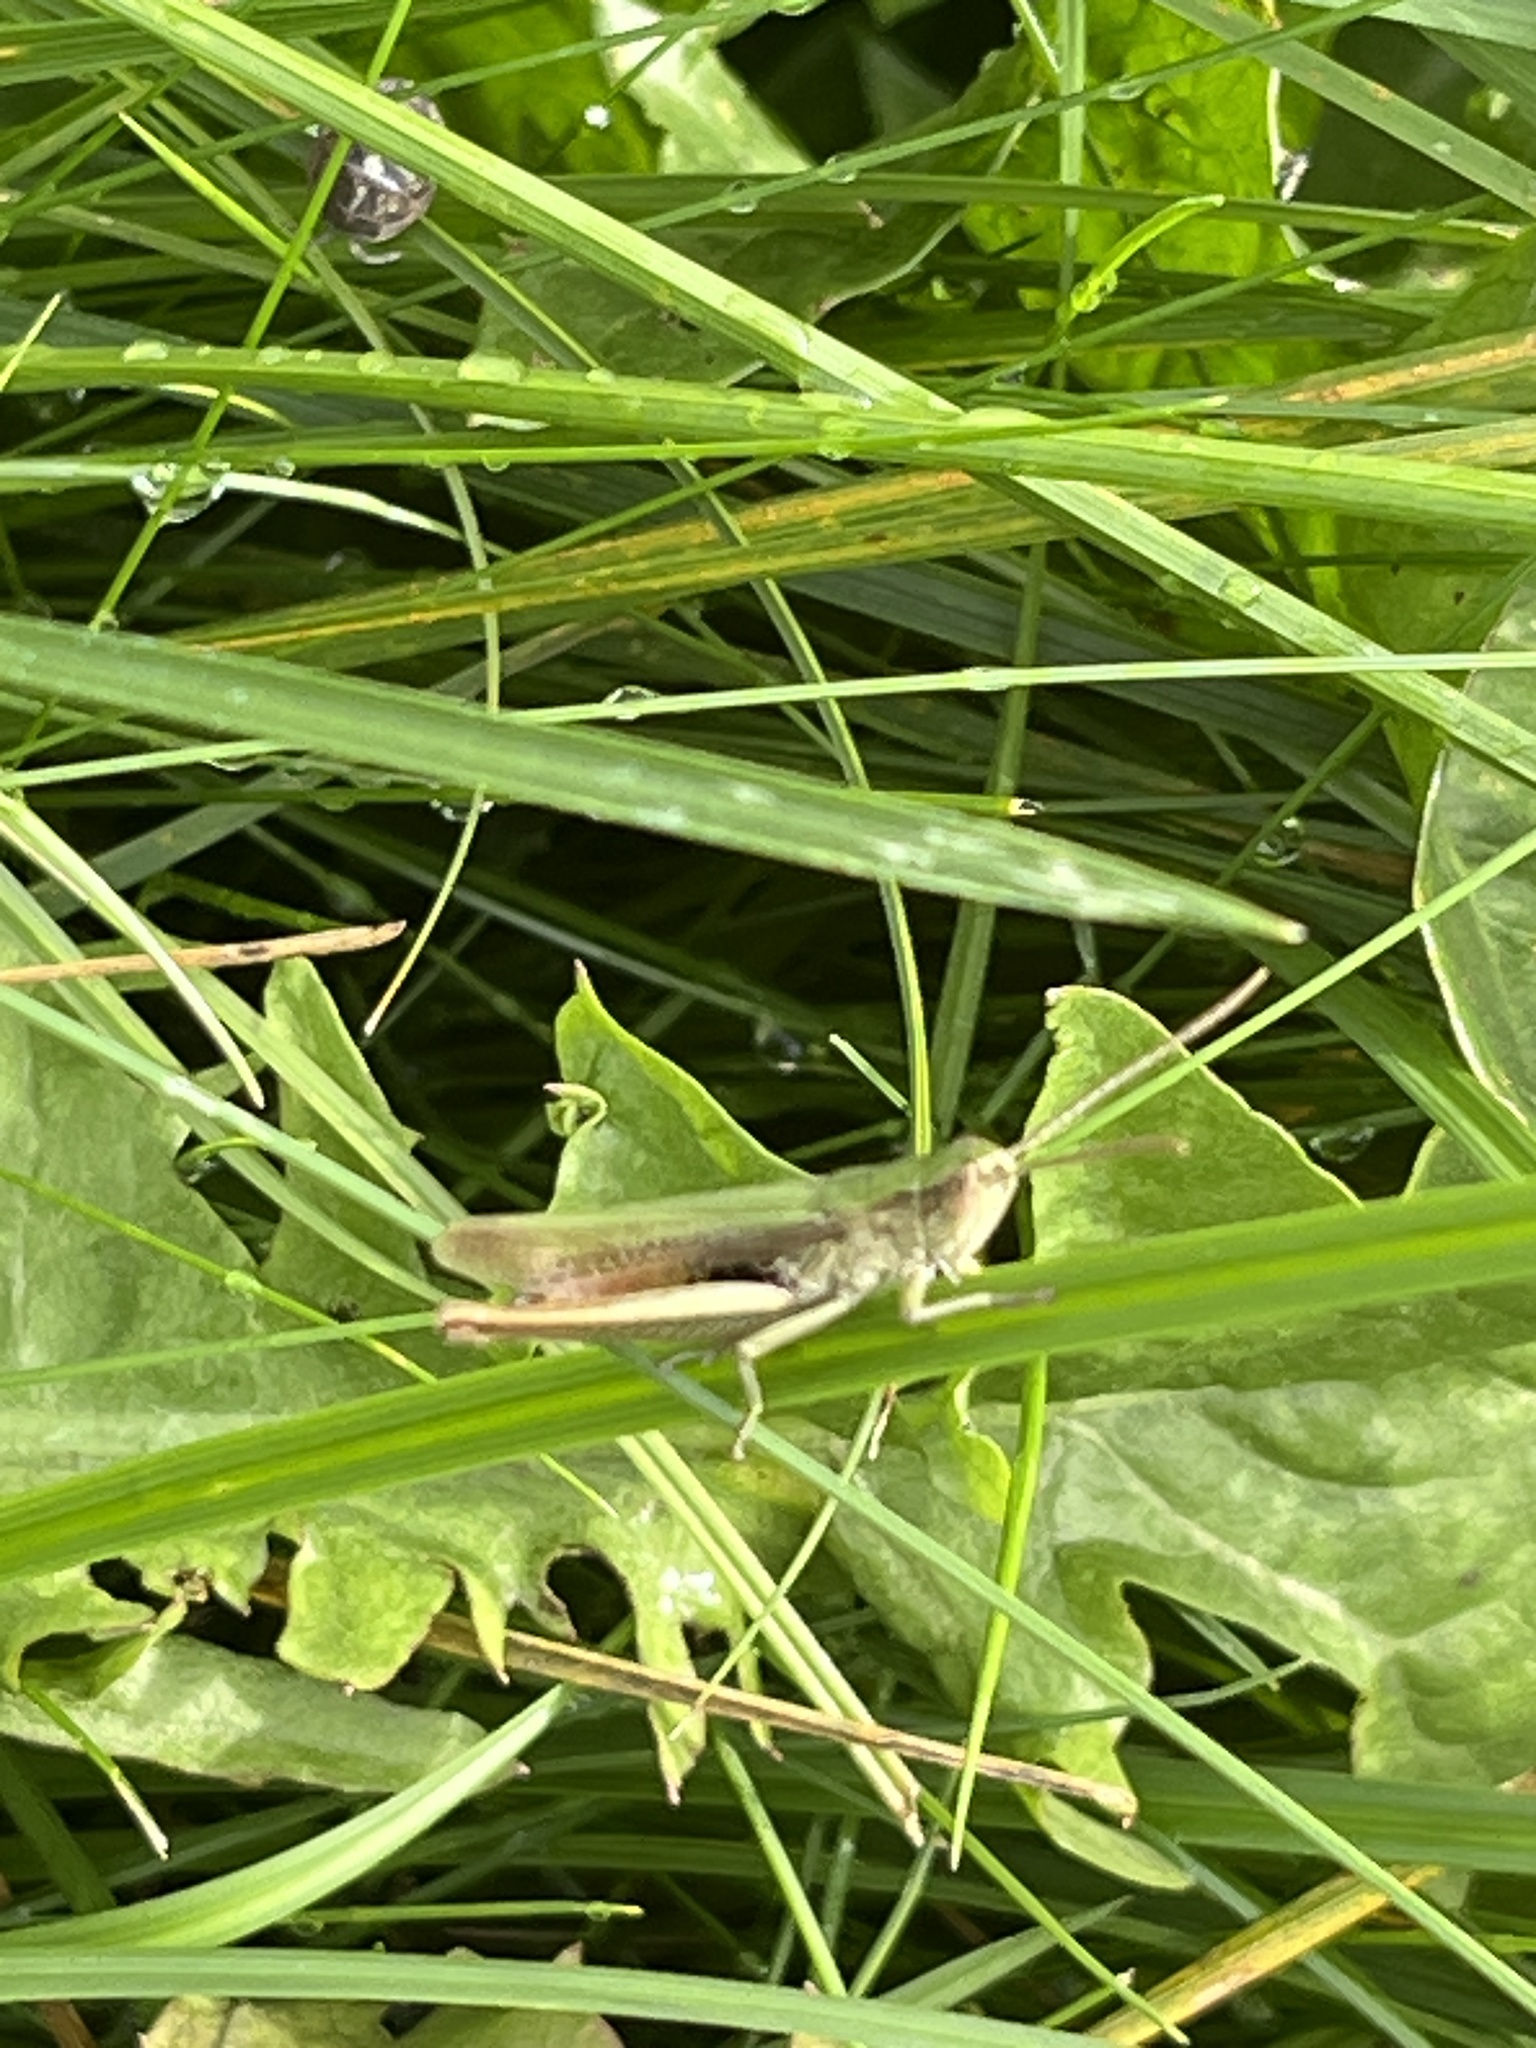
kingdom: Animalia
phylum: Arthropoda
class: Insecta
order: Orthoptera
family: Acrididae
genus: Chorthippus
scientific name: Chorthippus dorsatus
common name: Steppe grasshopper
